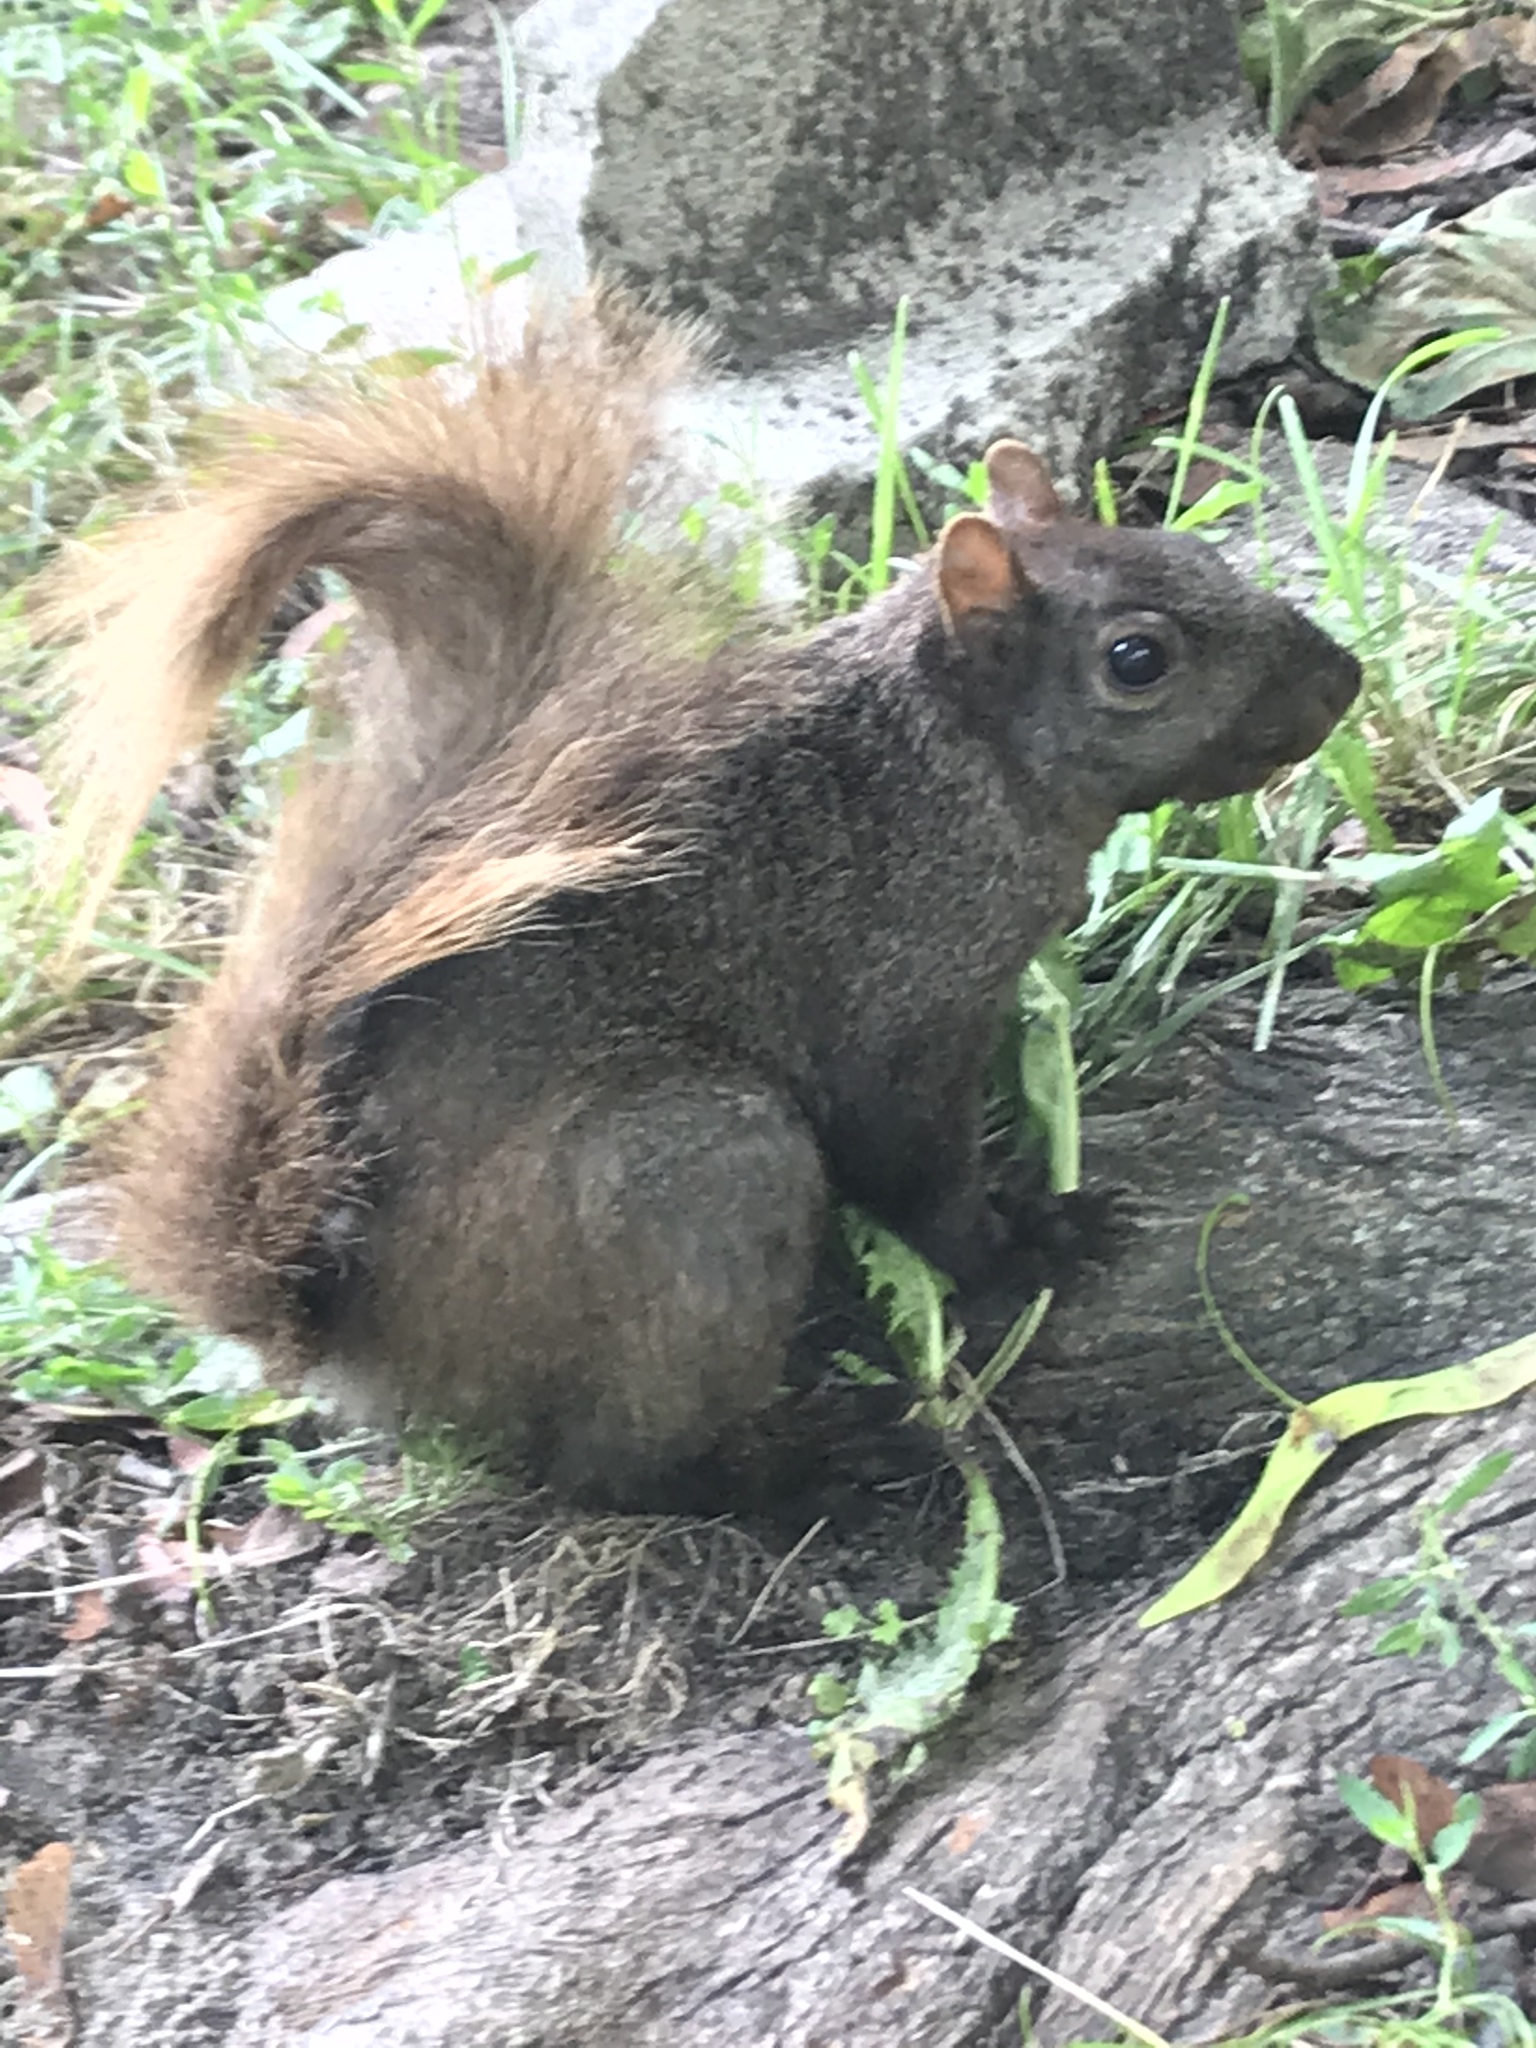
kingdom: Animalia
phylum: Chordata
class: Mammalia
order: Rodentia
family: Sciuridae
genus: Sciurus
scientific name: Sciurus carolinensis
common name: Eastern gray squirrel
